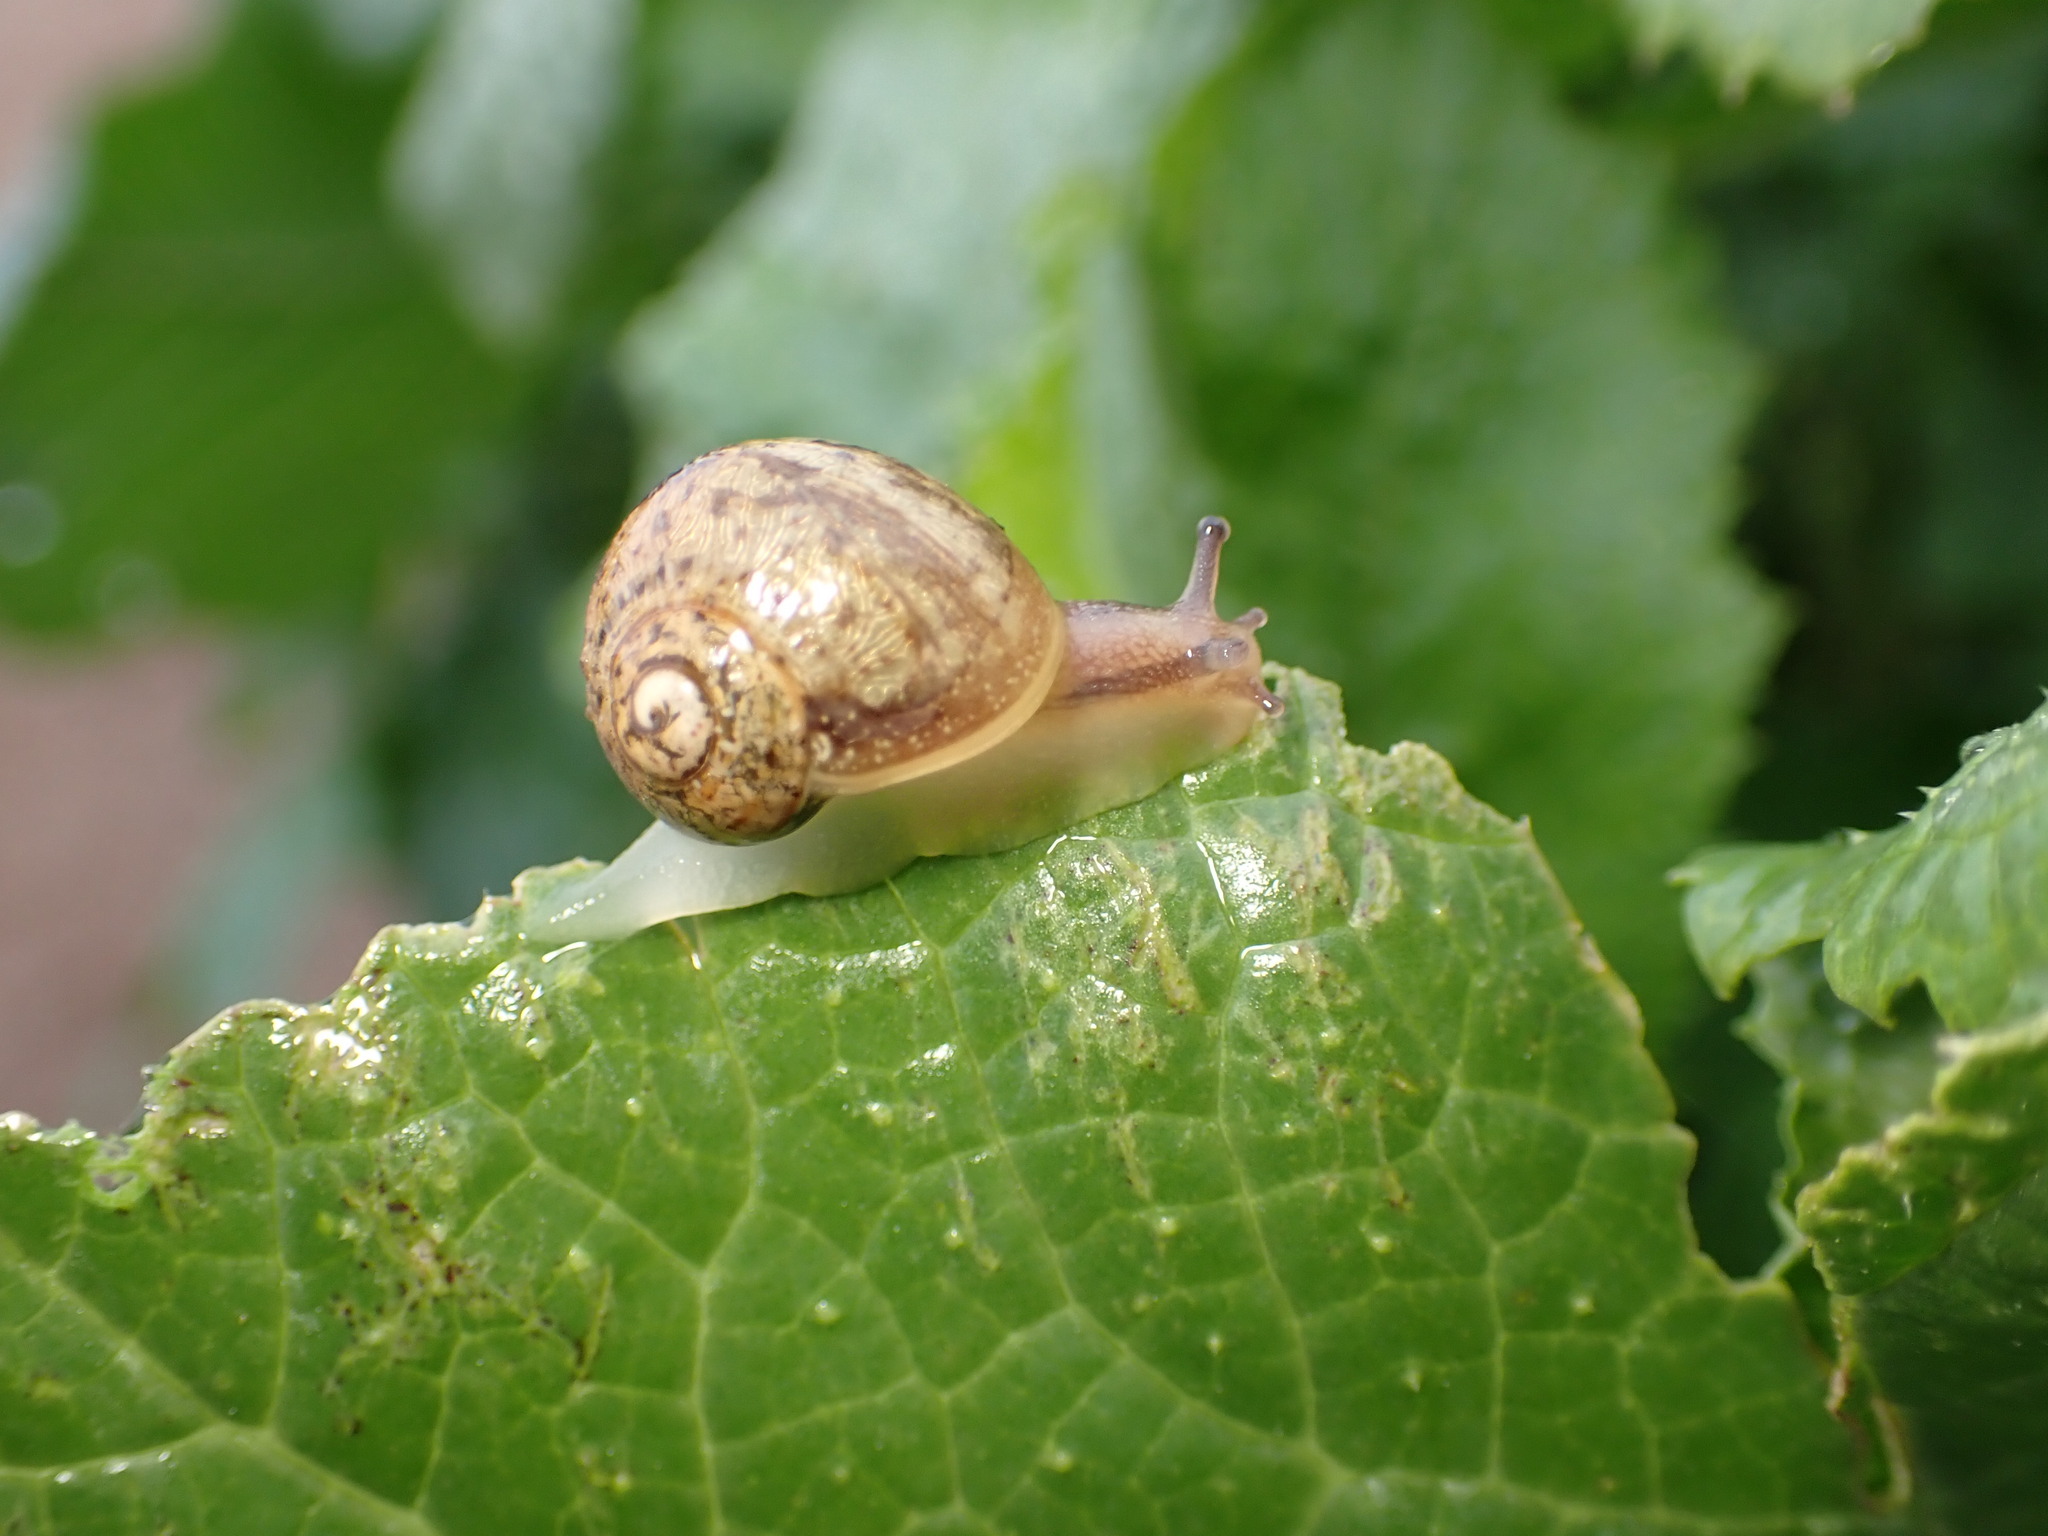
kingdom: Animalia
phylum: Mollusca
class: Gastropoda
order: Stylommatophora
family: Helicidae
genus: Cornu
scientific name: Cornu aspersum
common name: Brown garden snail
